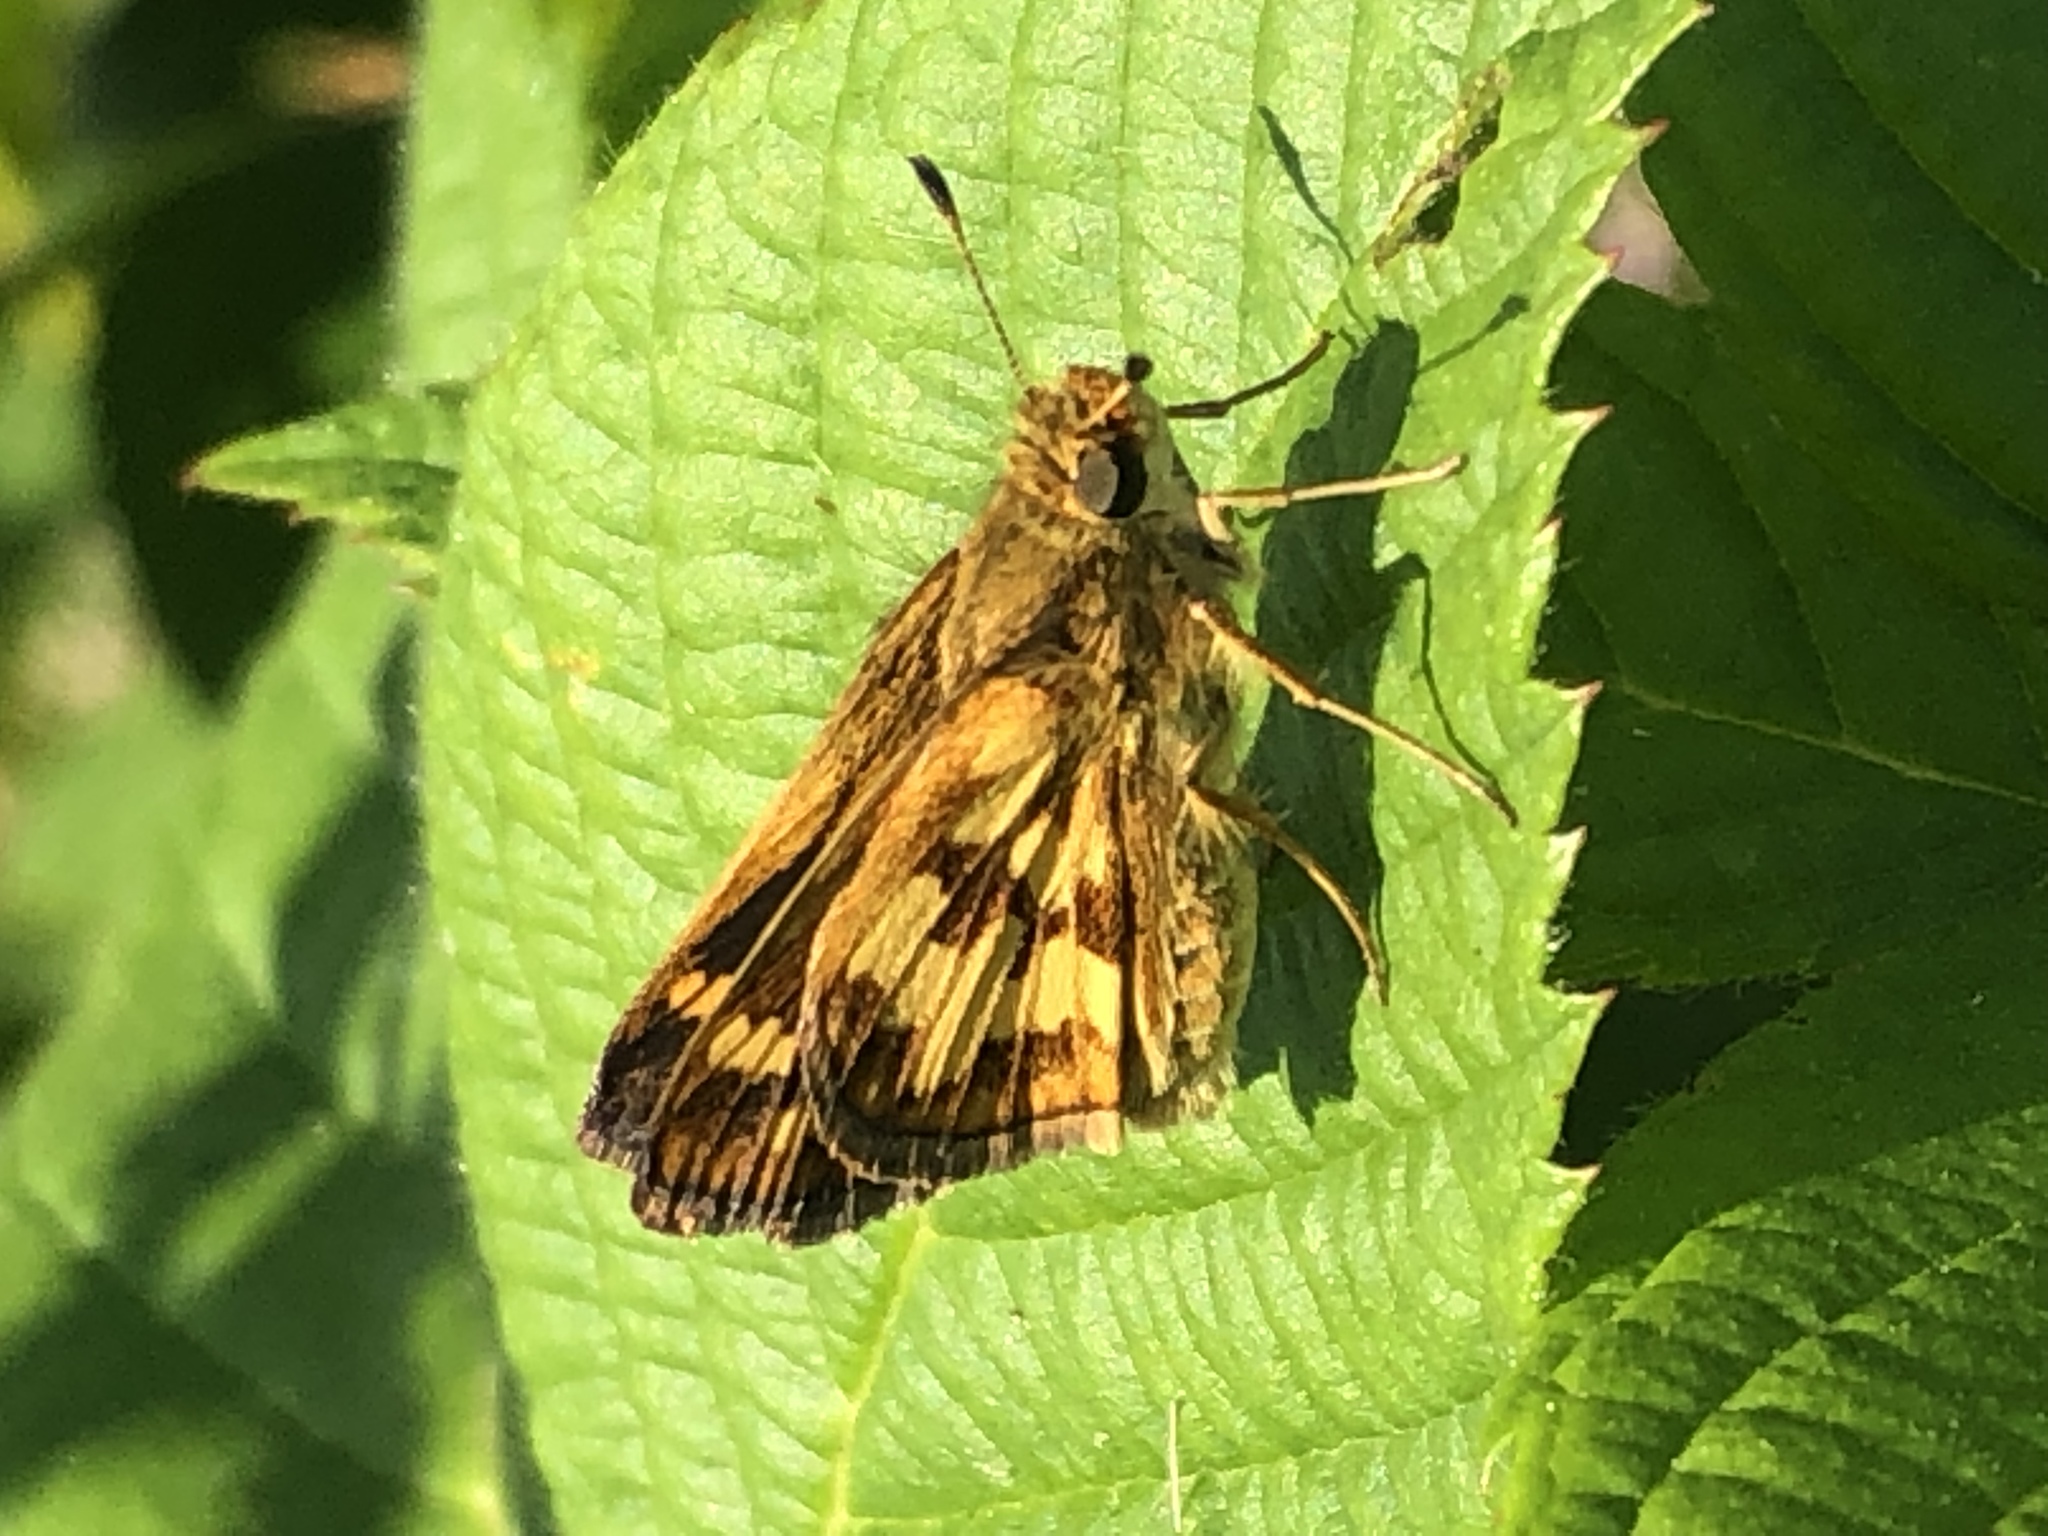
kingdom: Animalia
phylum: Arthropoda
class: Insecta
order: Lepidoptera
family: Hesperiidae
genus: Polites
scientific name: Polites coras
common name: Peck's skipper
